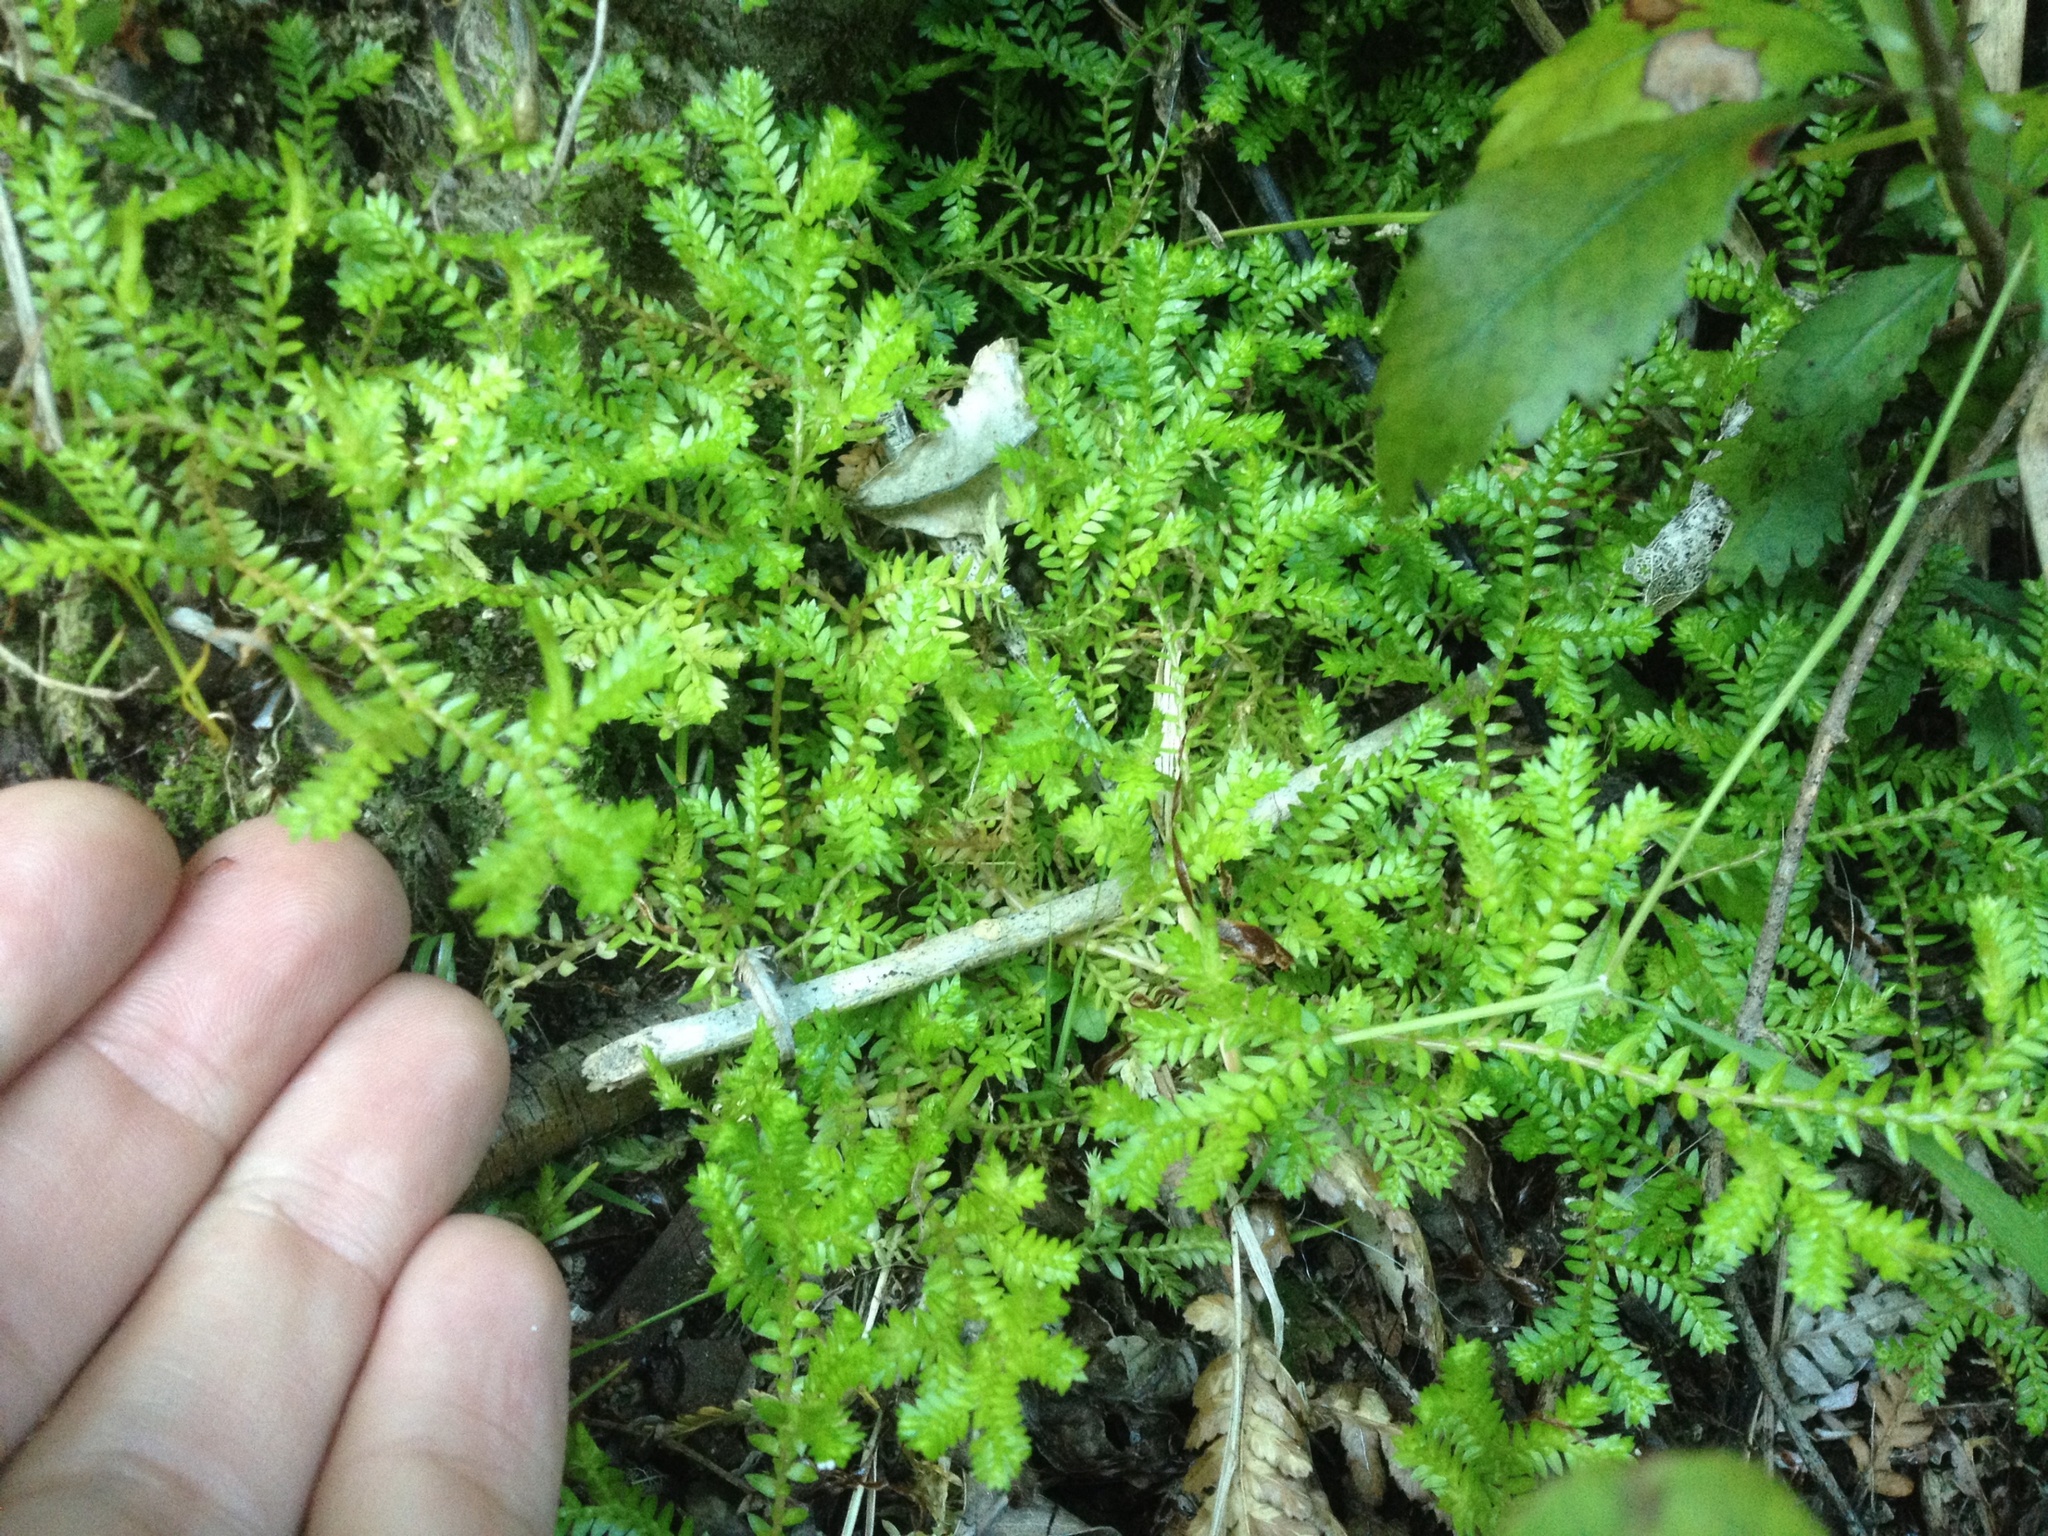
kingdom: Plantae
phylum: Tracheophyta
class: Lycopodiopsida
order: Selaginellales
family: Selaginellaceae
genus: Selaginella
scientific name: Selaginella kraussiana
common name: Krauss' spikemoss
